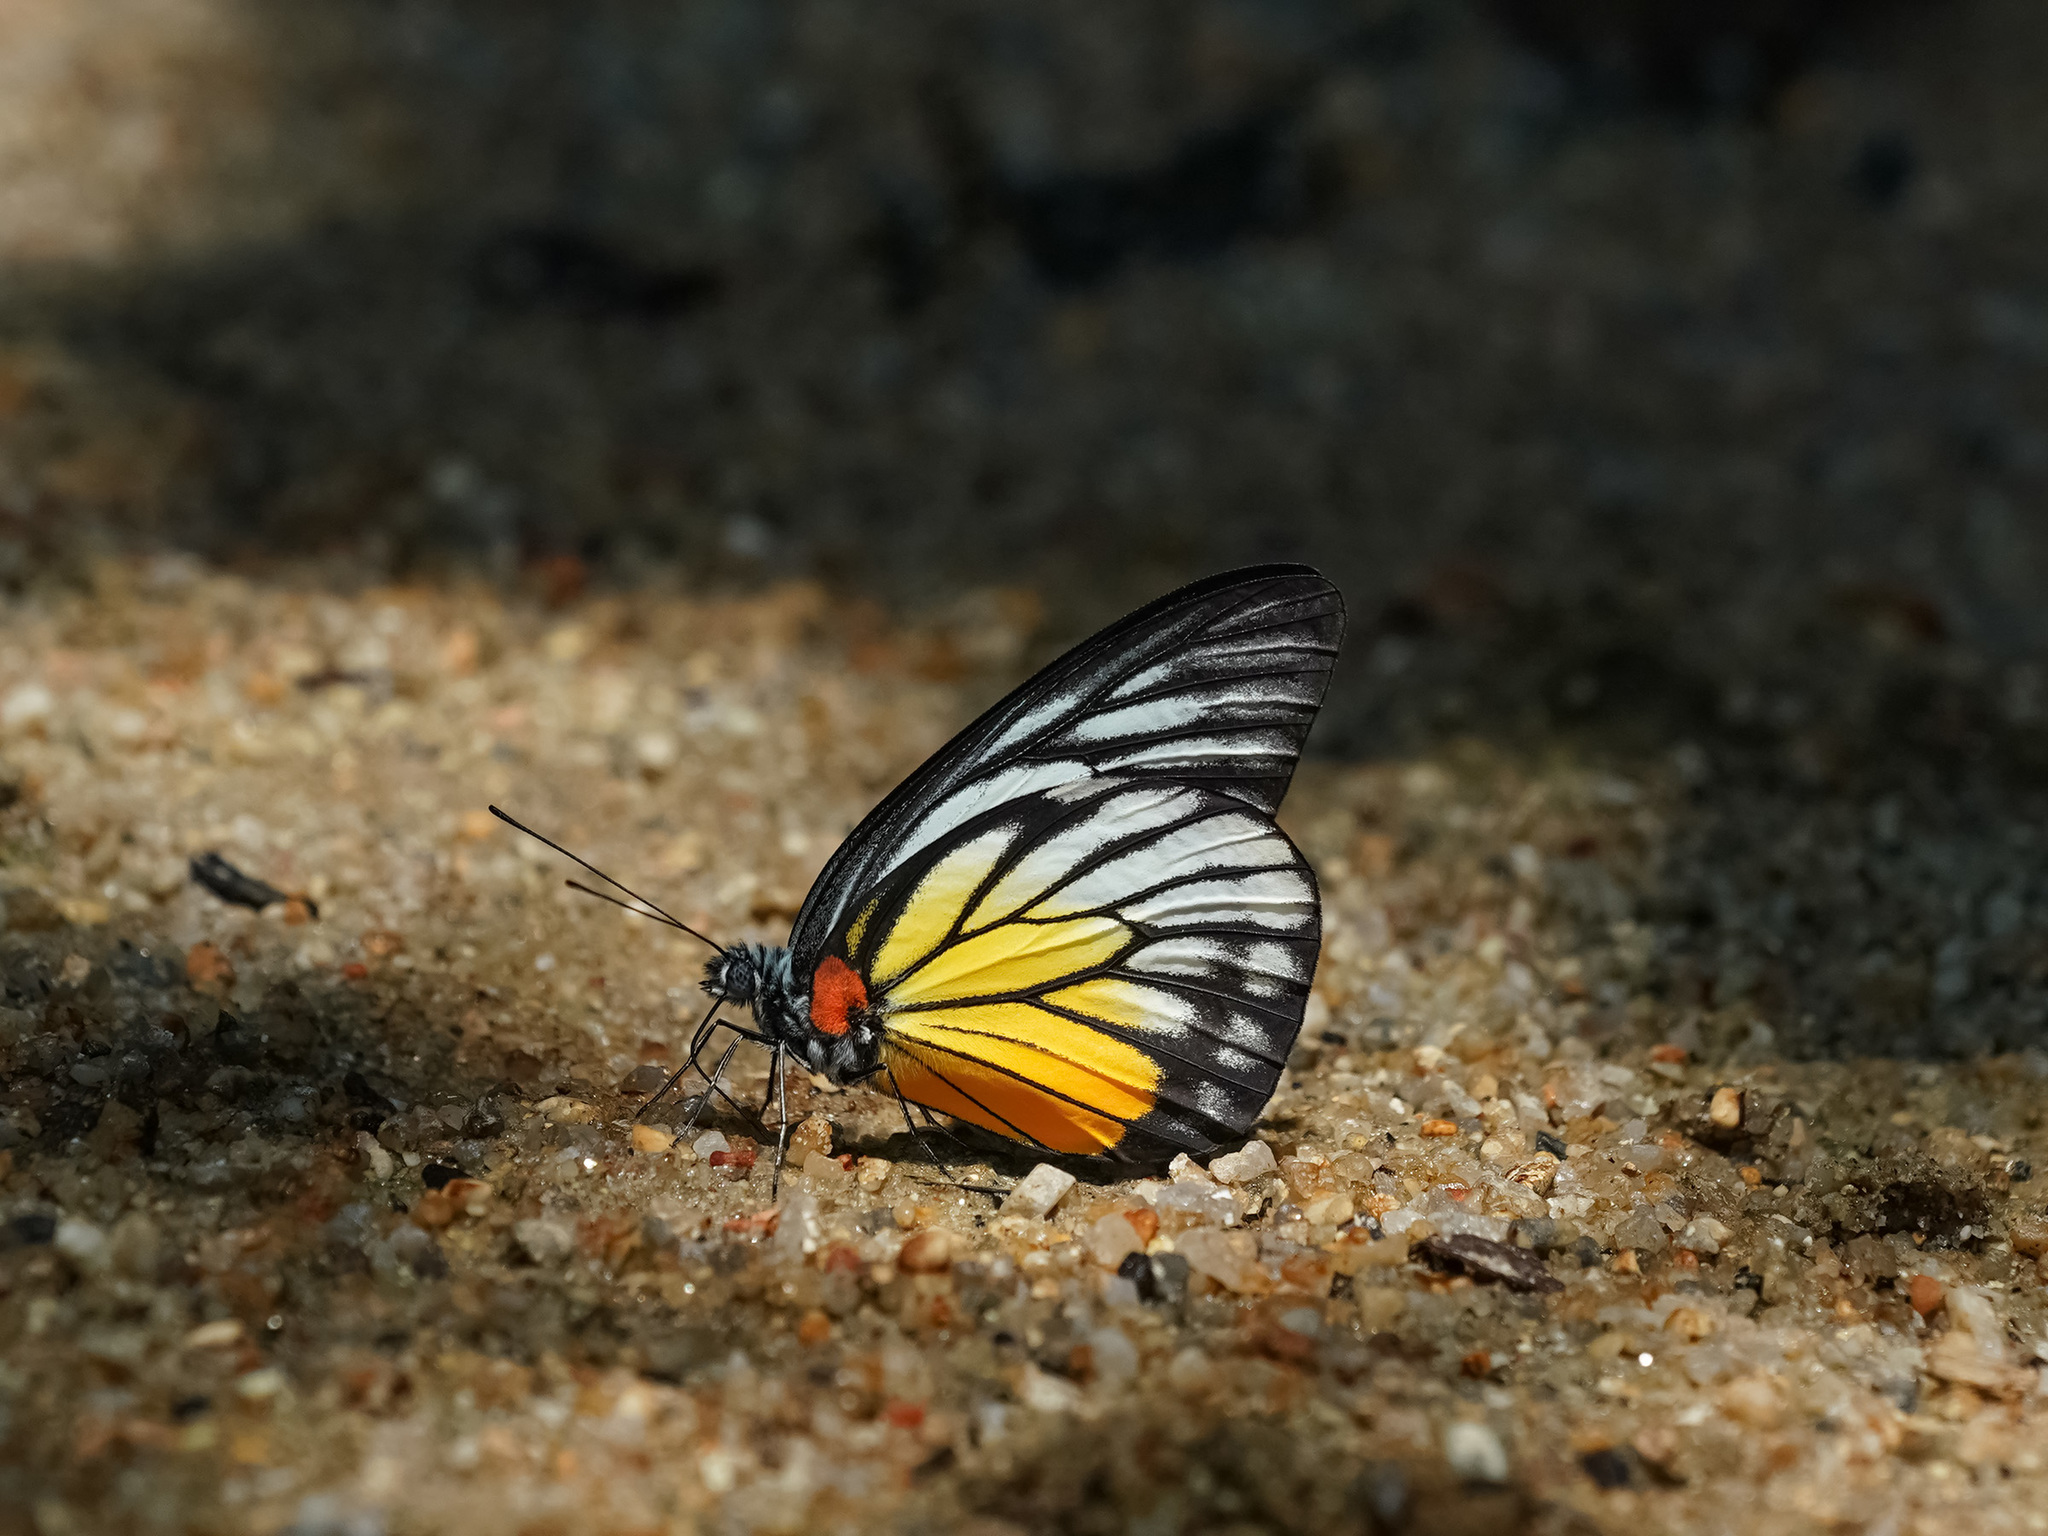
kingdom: Animalia
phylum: Arthropoda
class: Insecta
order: Lepidoptera
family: Pieridae
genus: Prioneris
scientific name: Prioneris philonome
